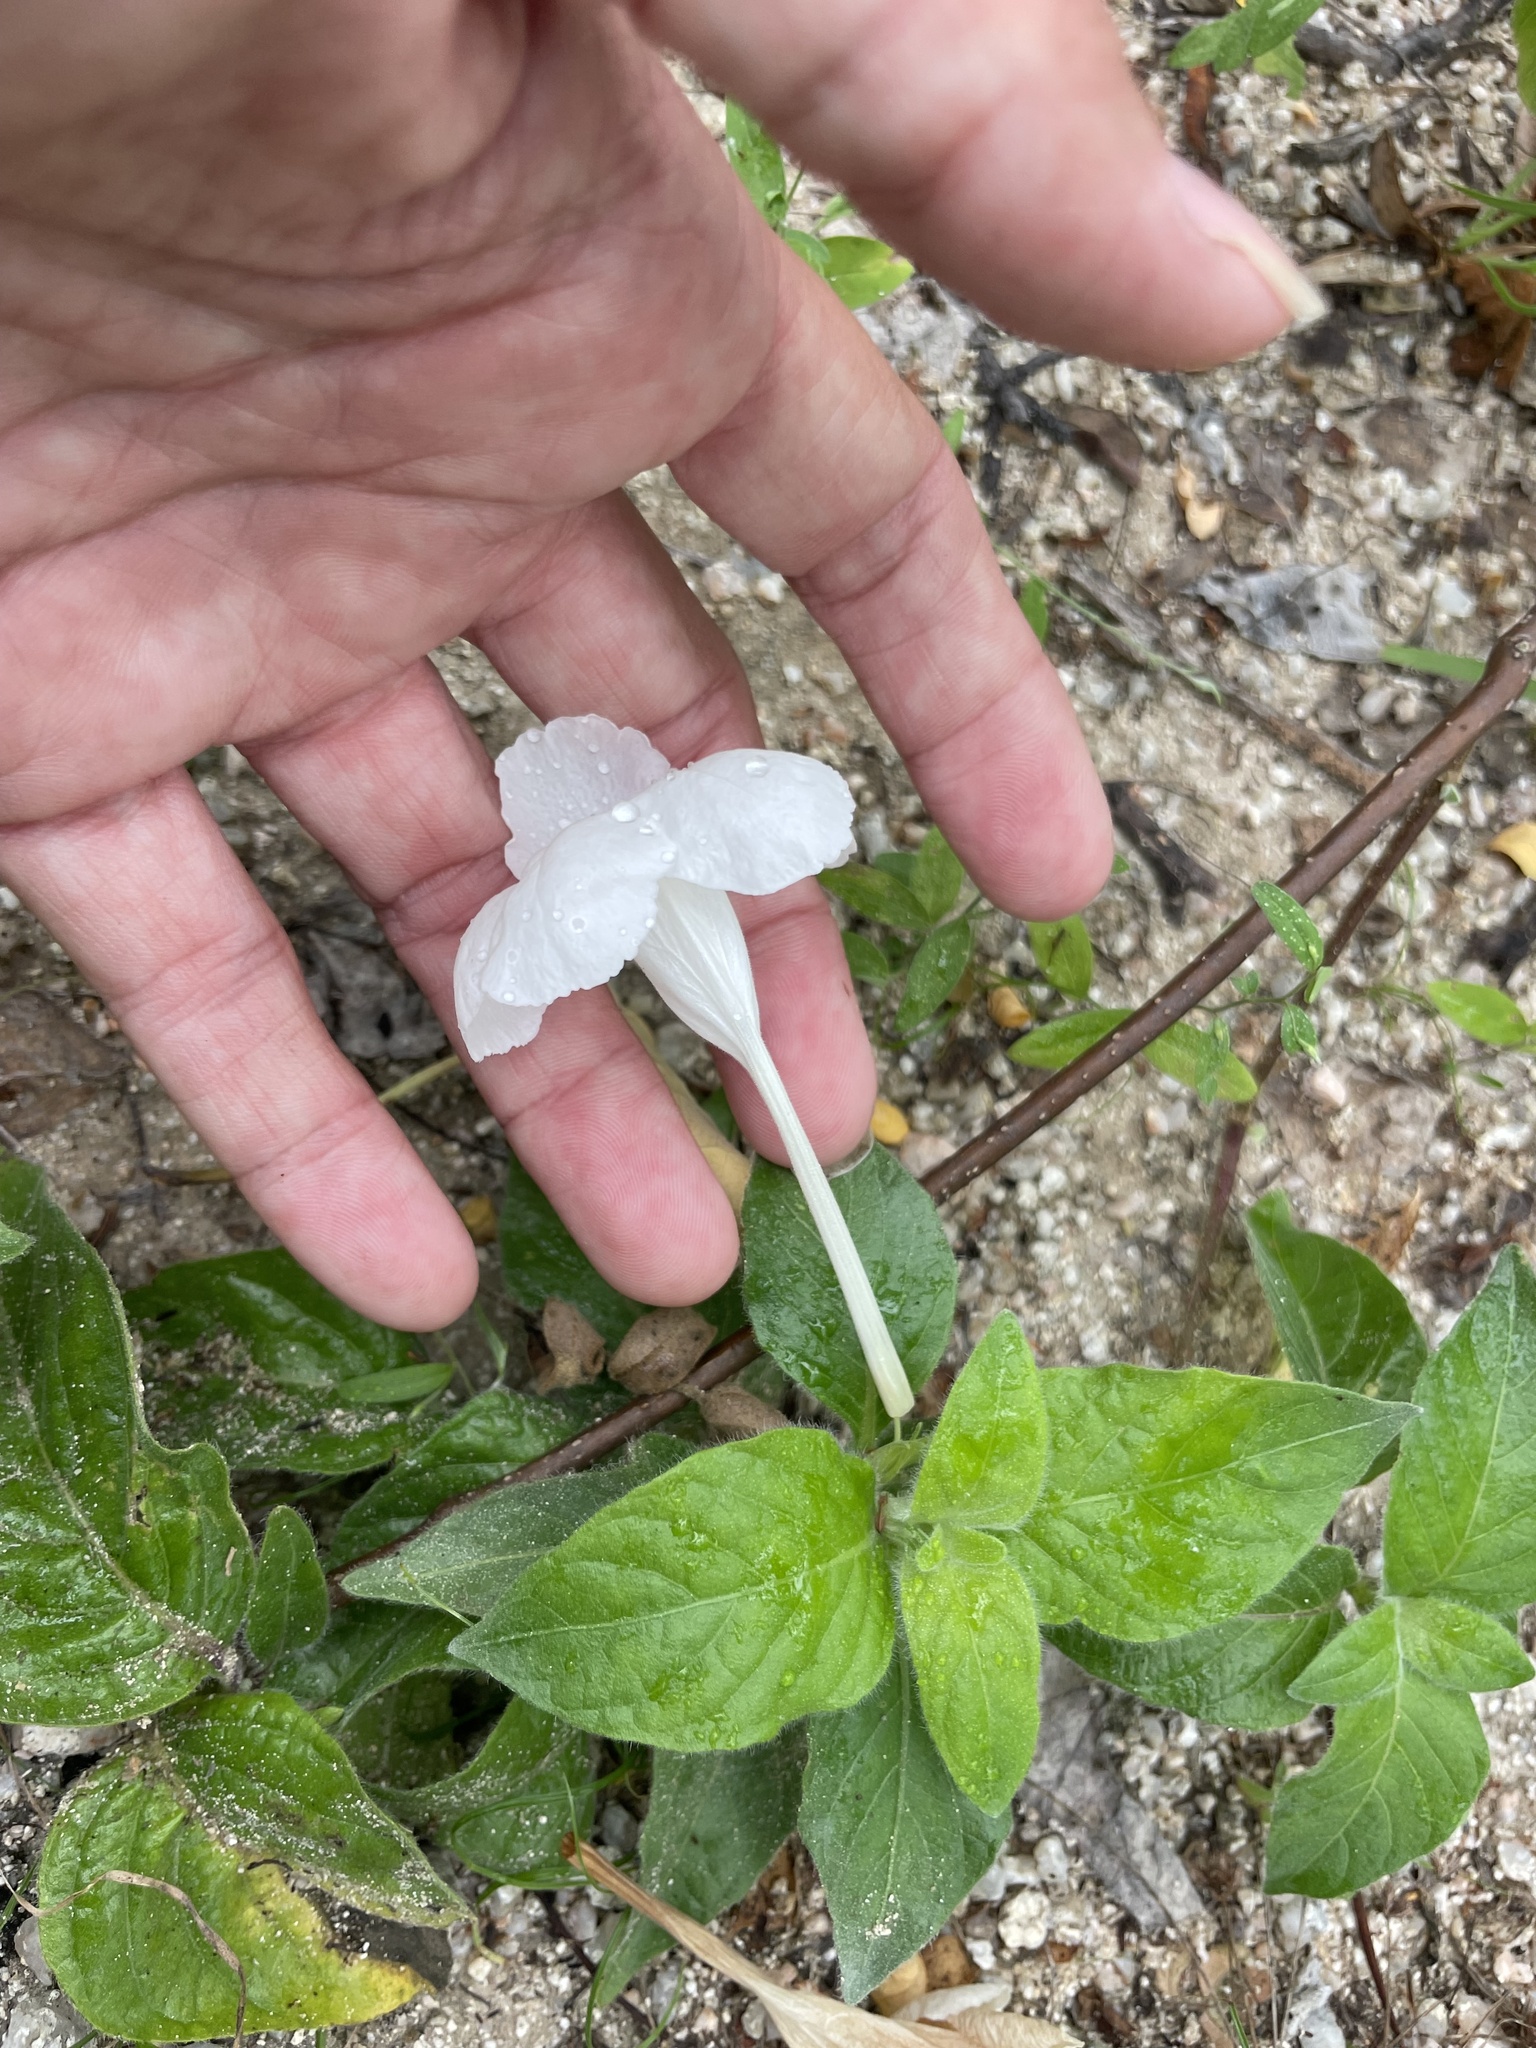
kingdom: Plantae
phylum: Tracheophyta
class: Magnoliopsida
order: Lamiales
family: Acanthaceae
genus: Ruellia
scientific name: Ruellia leucantha
